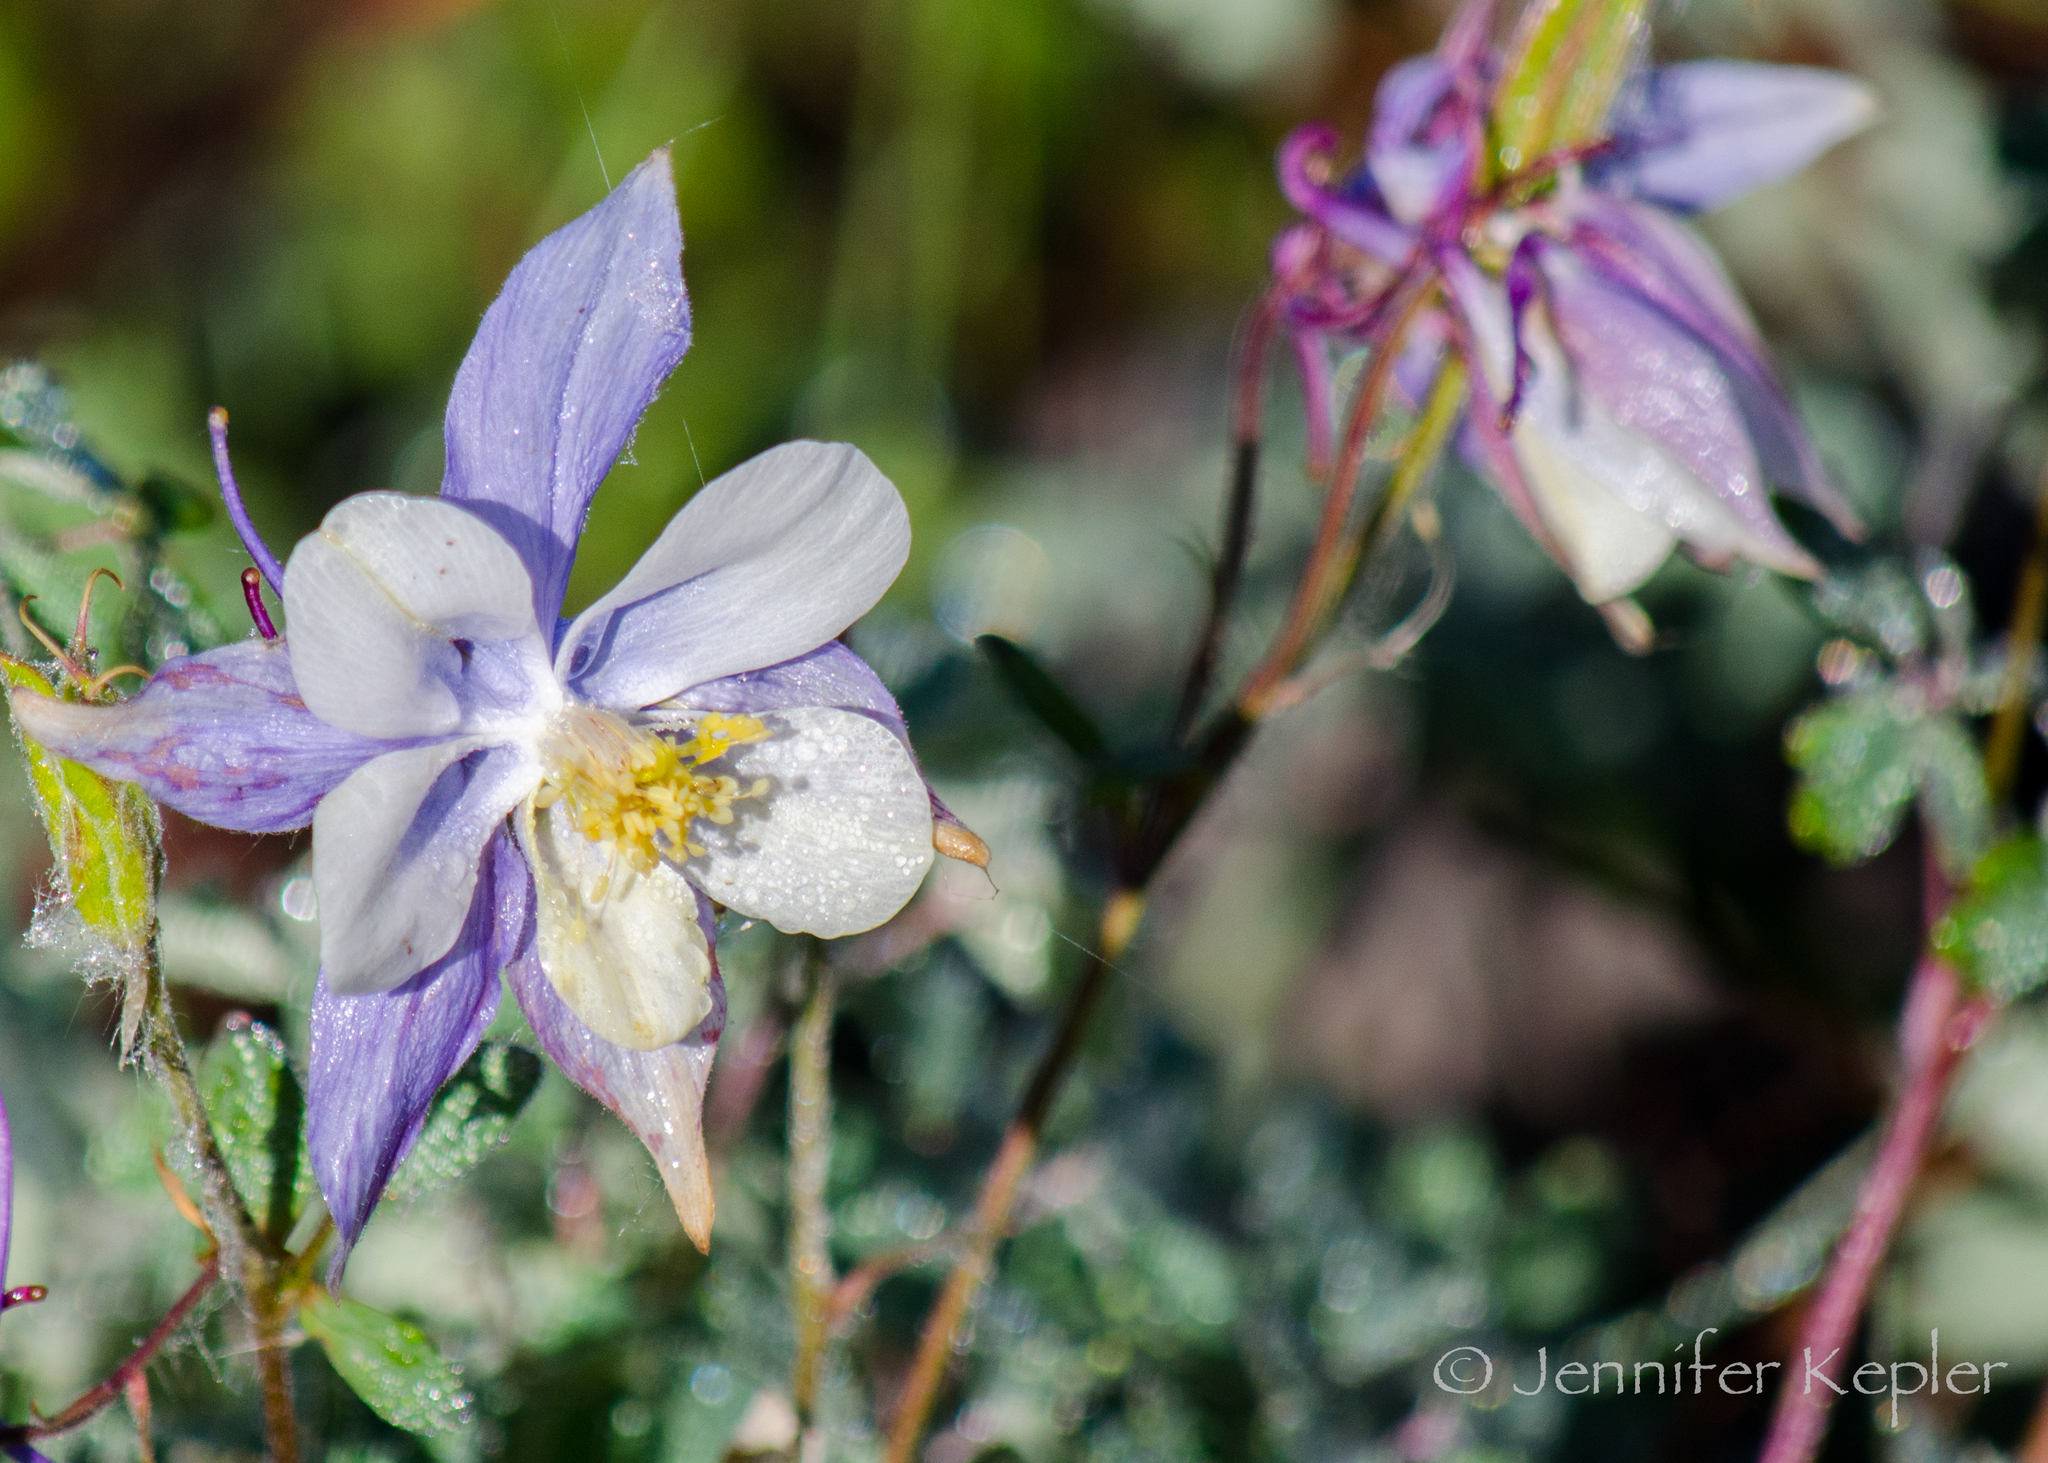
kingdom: Plantae
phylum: Tracheophyta
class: Magnoliopsida
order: Ranunculales
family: Ranunculaceae
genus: Aquilegia
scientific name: Aquilegia coerulea
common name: Rocky mountain columbine
